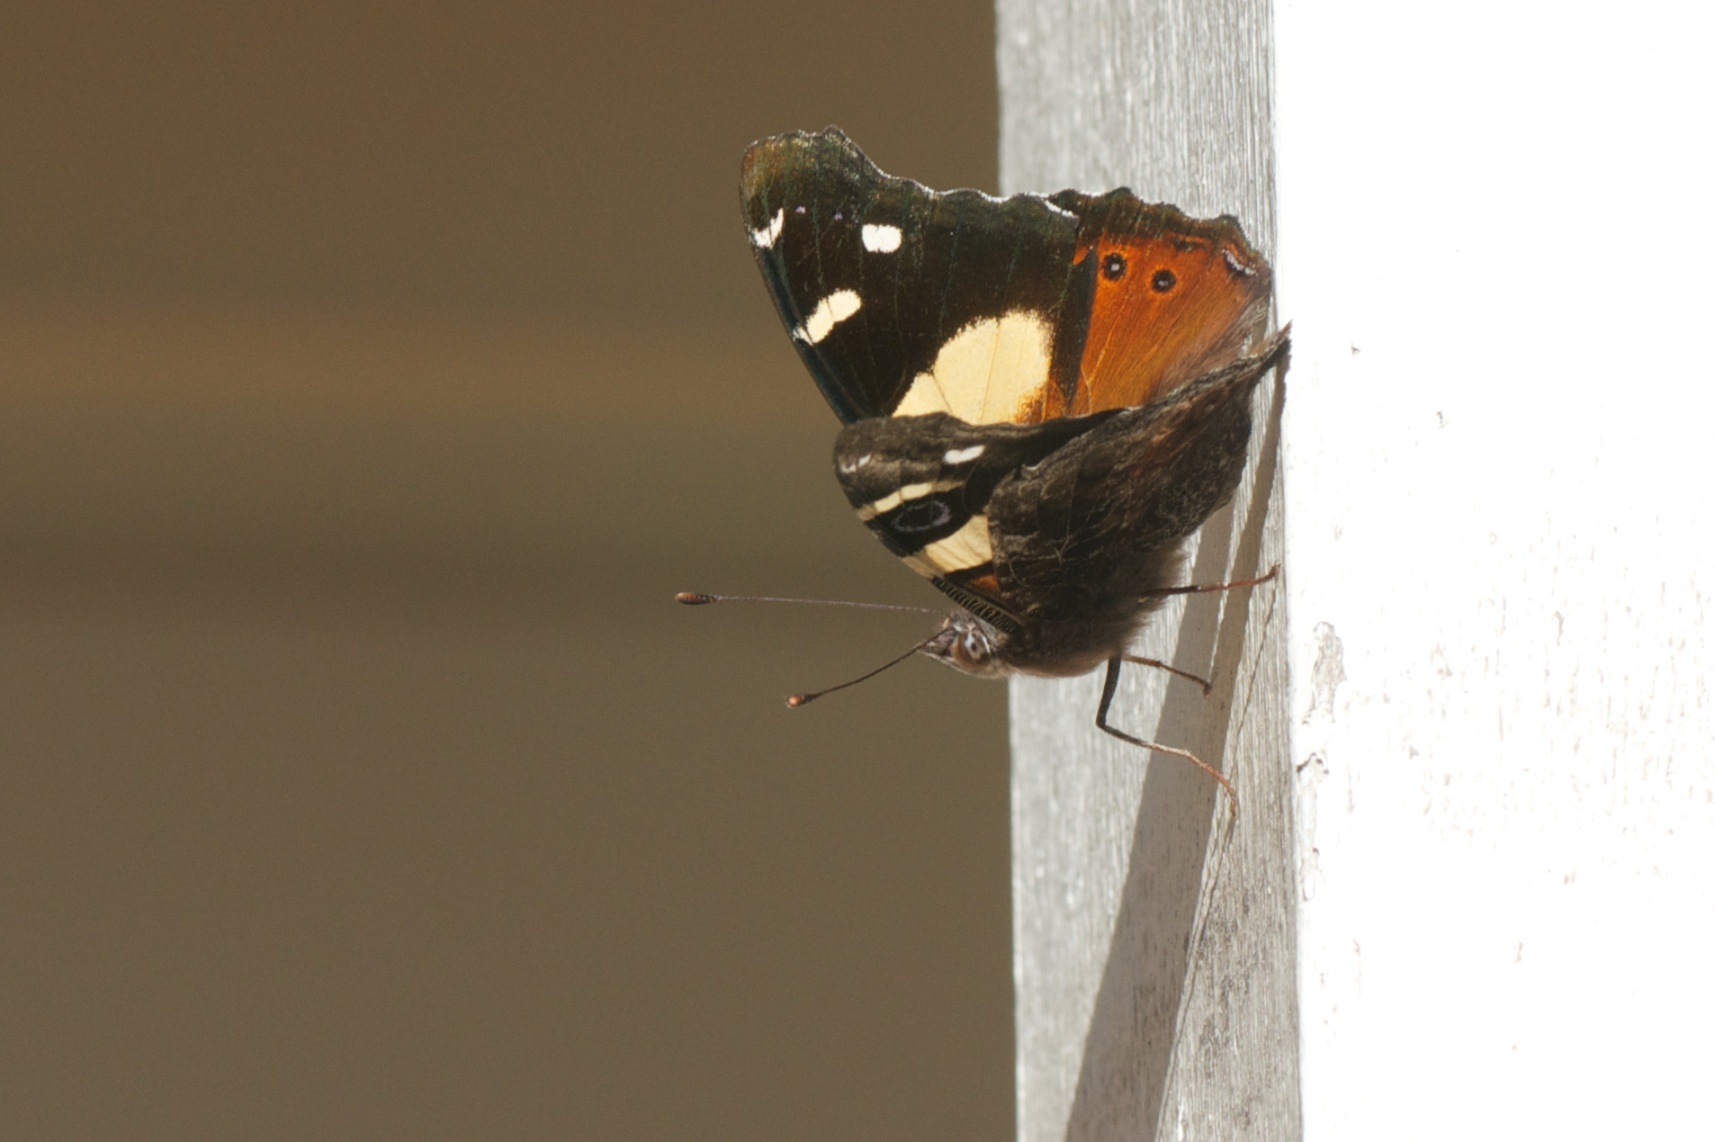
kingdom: Animalia
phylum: Arthropoda
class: Insecta
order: Lepidoptera
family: Nymphalidae
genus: Vanessa
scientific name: Vanessa itea
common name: Yellow admiral
